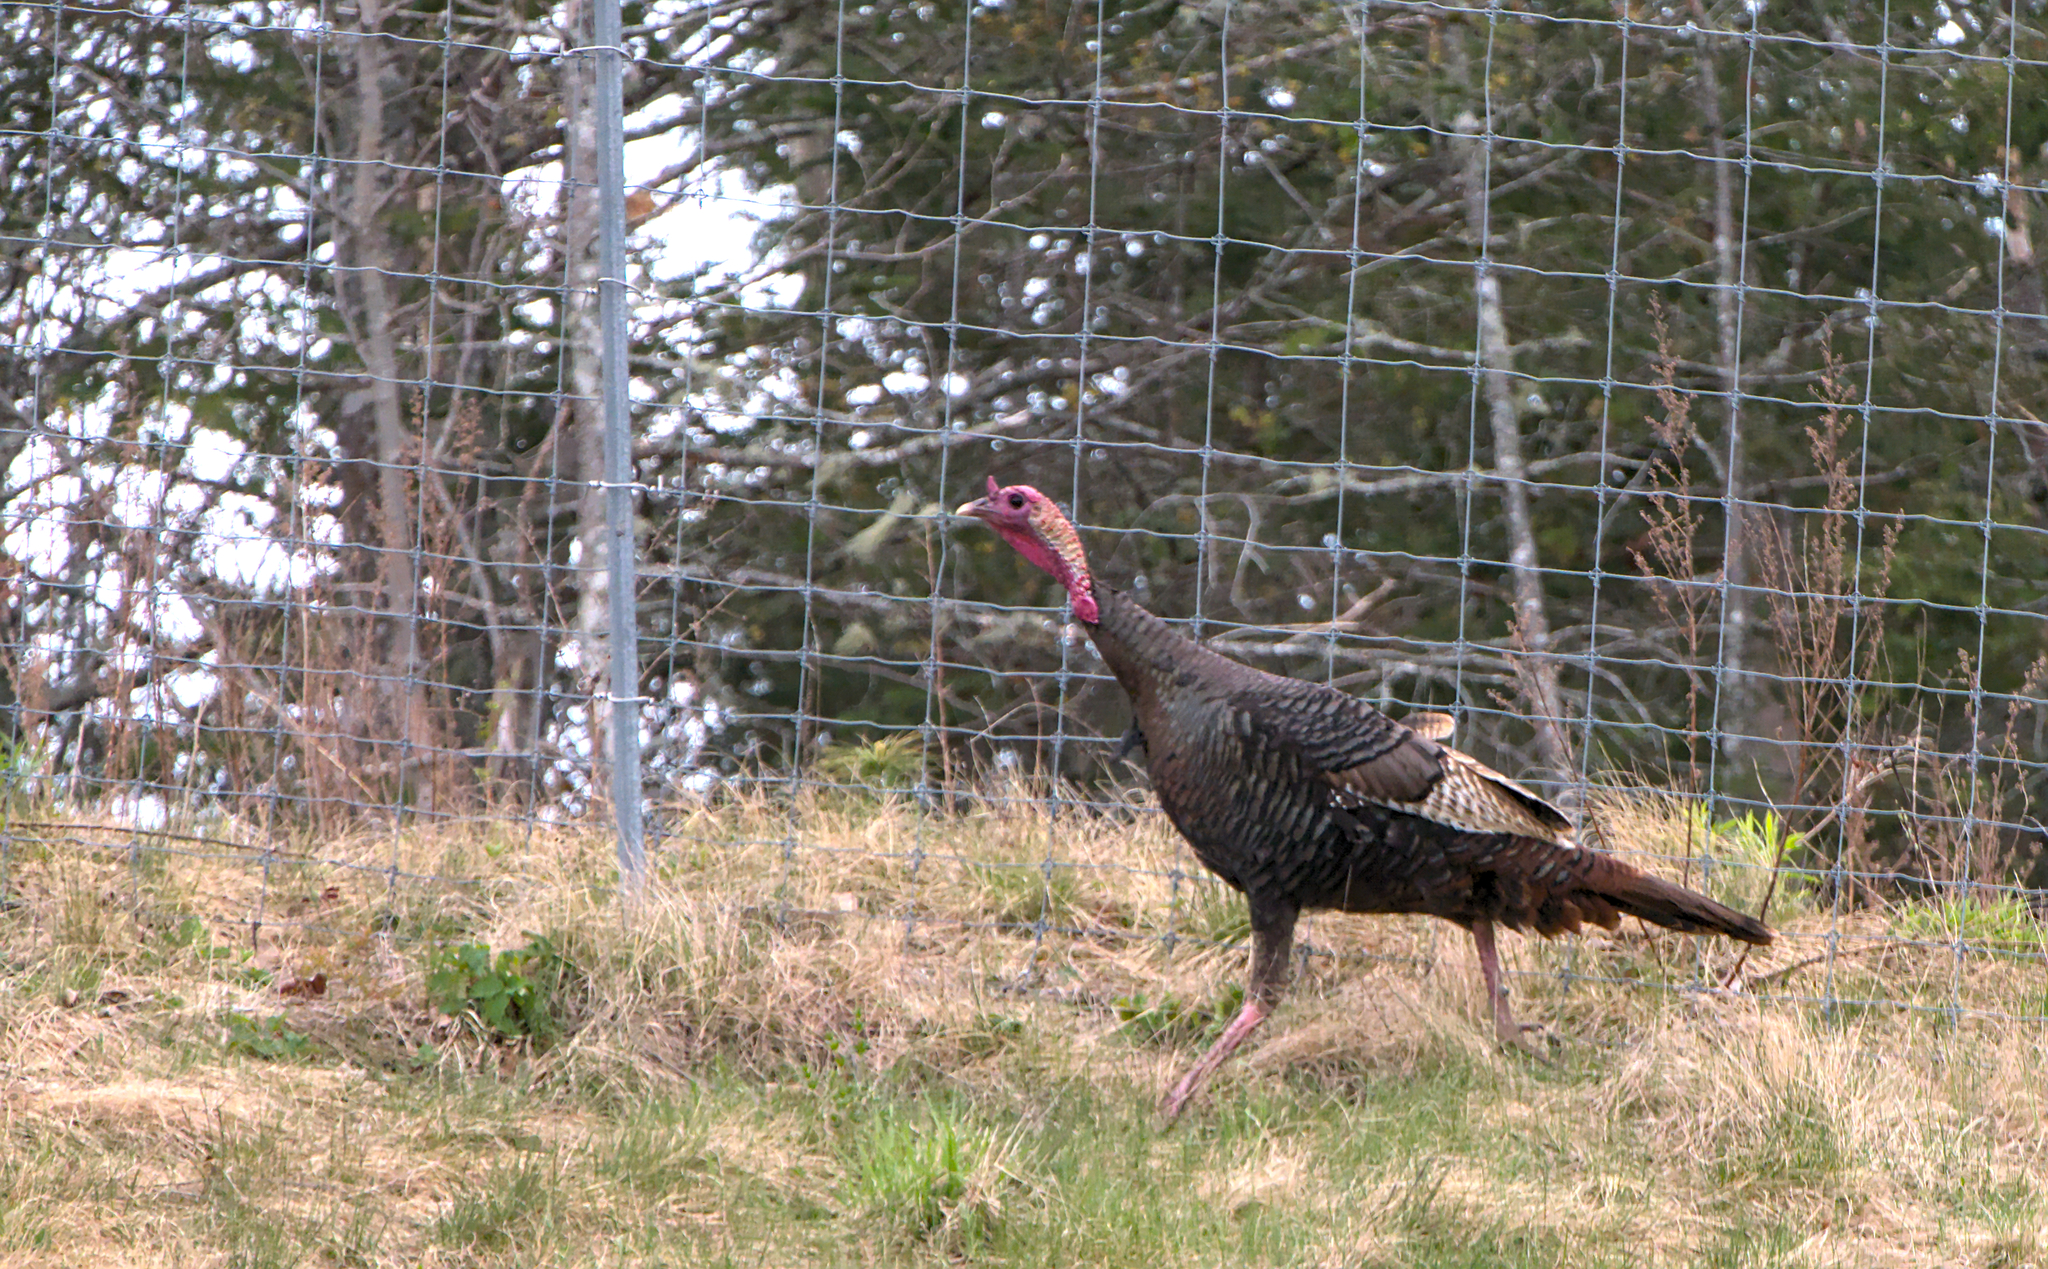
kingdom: Animalia
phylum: Chordata
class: Aves
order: Galliformes
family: Phasianidae
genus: Meleagris
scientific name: Meleagris gallopavo
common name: Wild turkey
